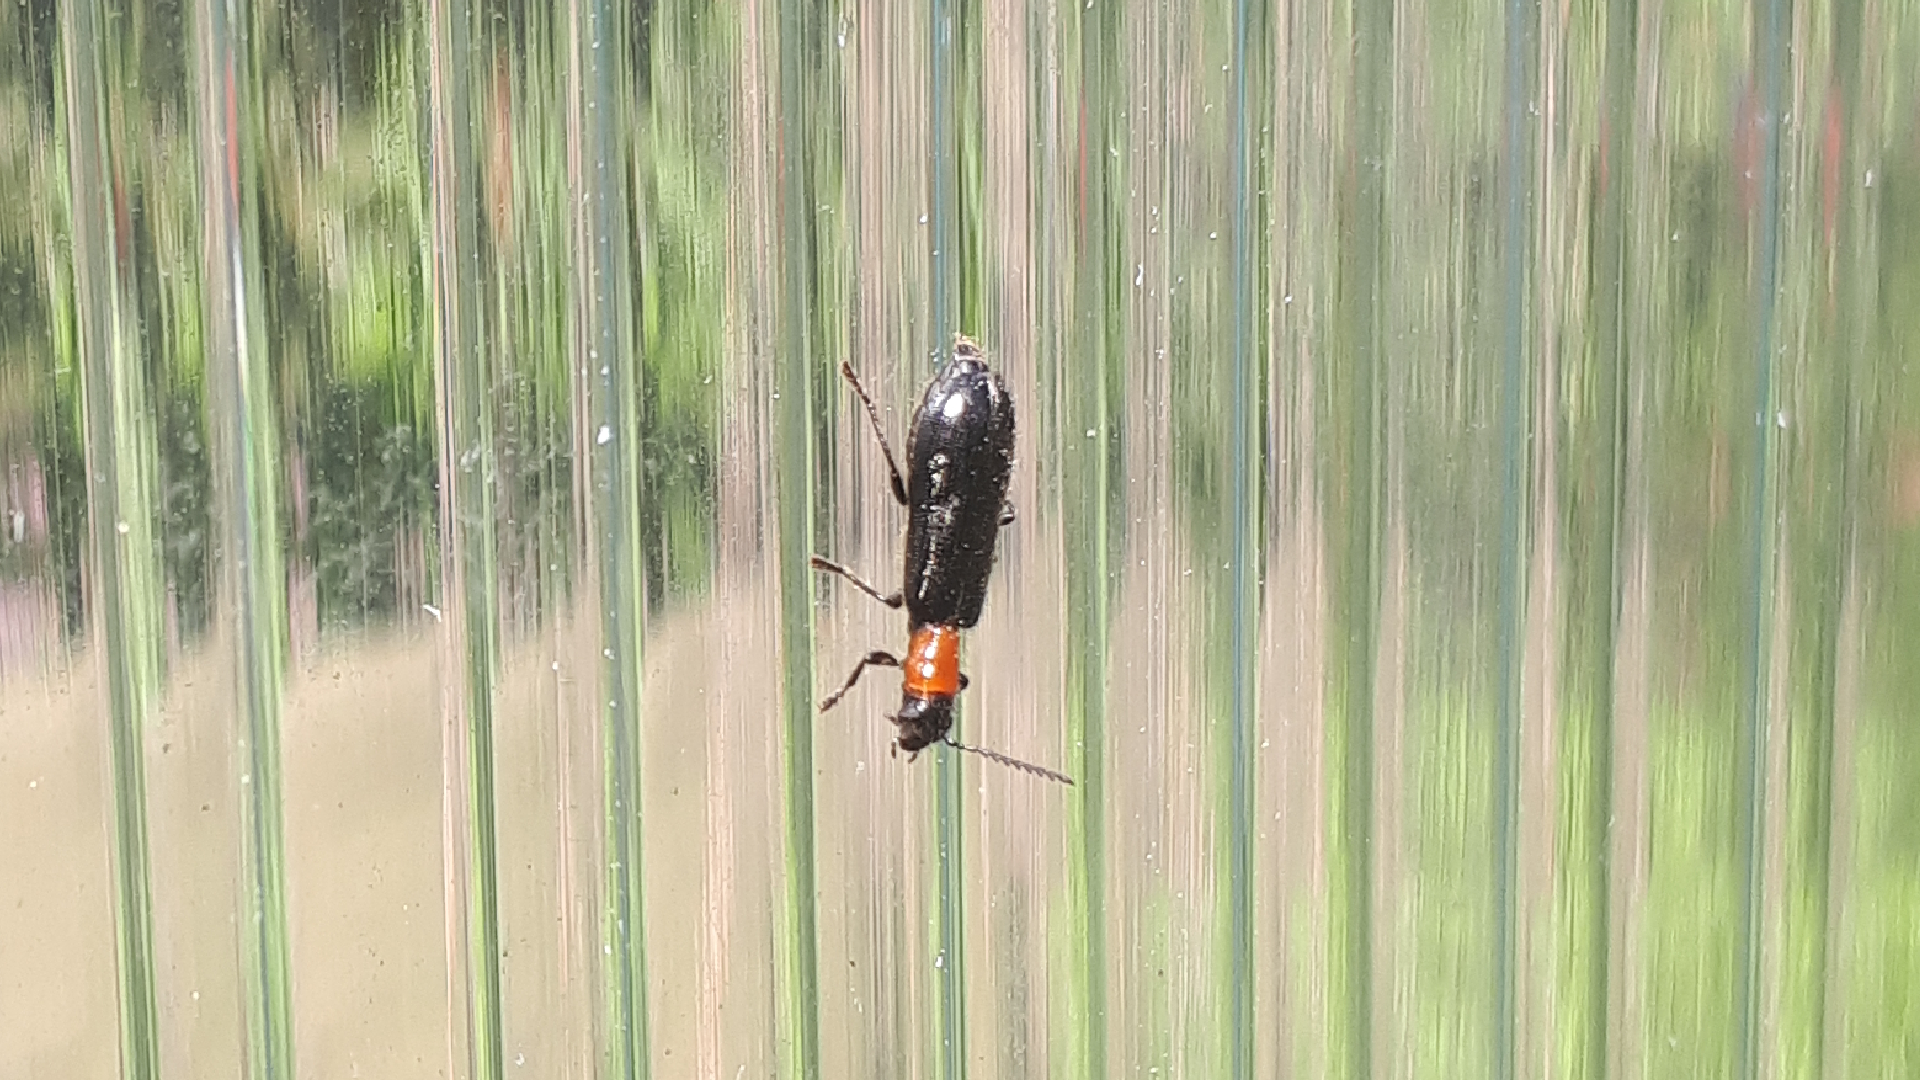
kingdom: Animalia
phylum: Arthropoda
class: Insecta
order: Coleoptera
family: Cleridae
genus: Tillus
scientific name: Tillus elongatus
